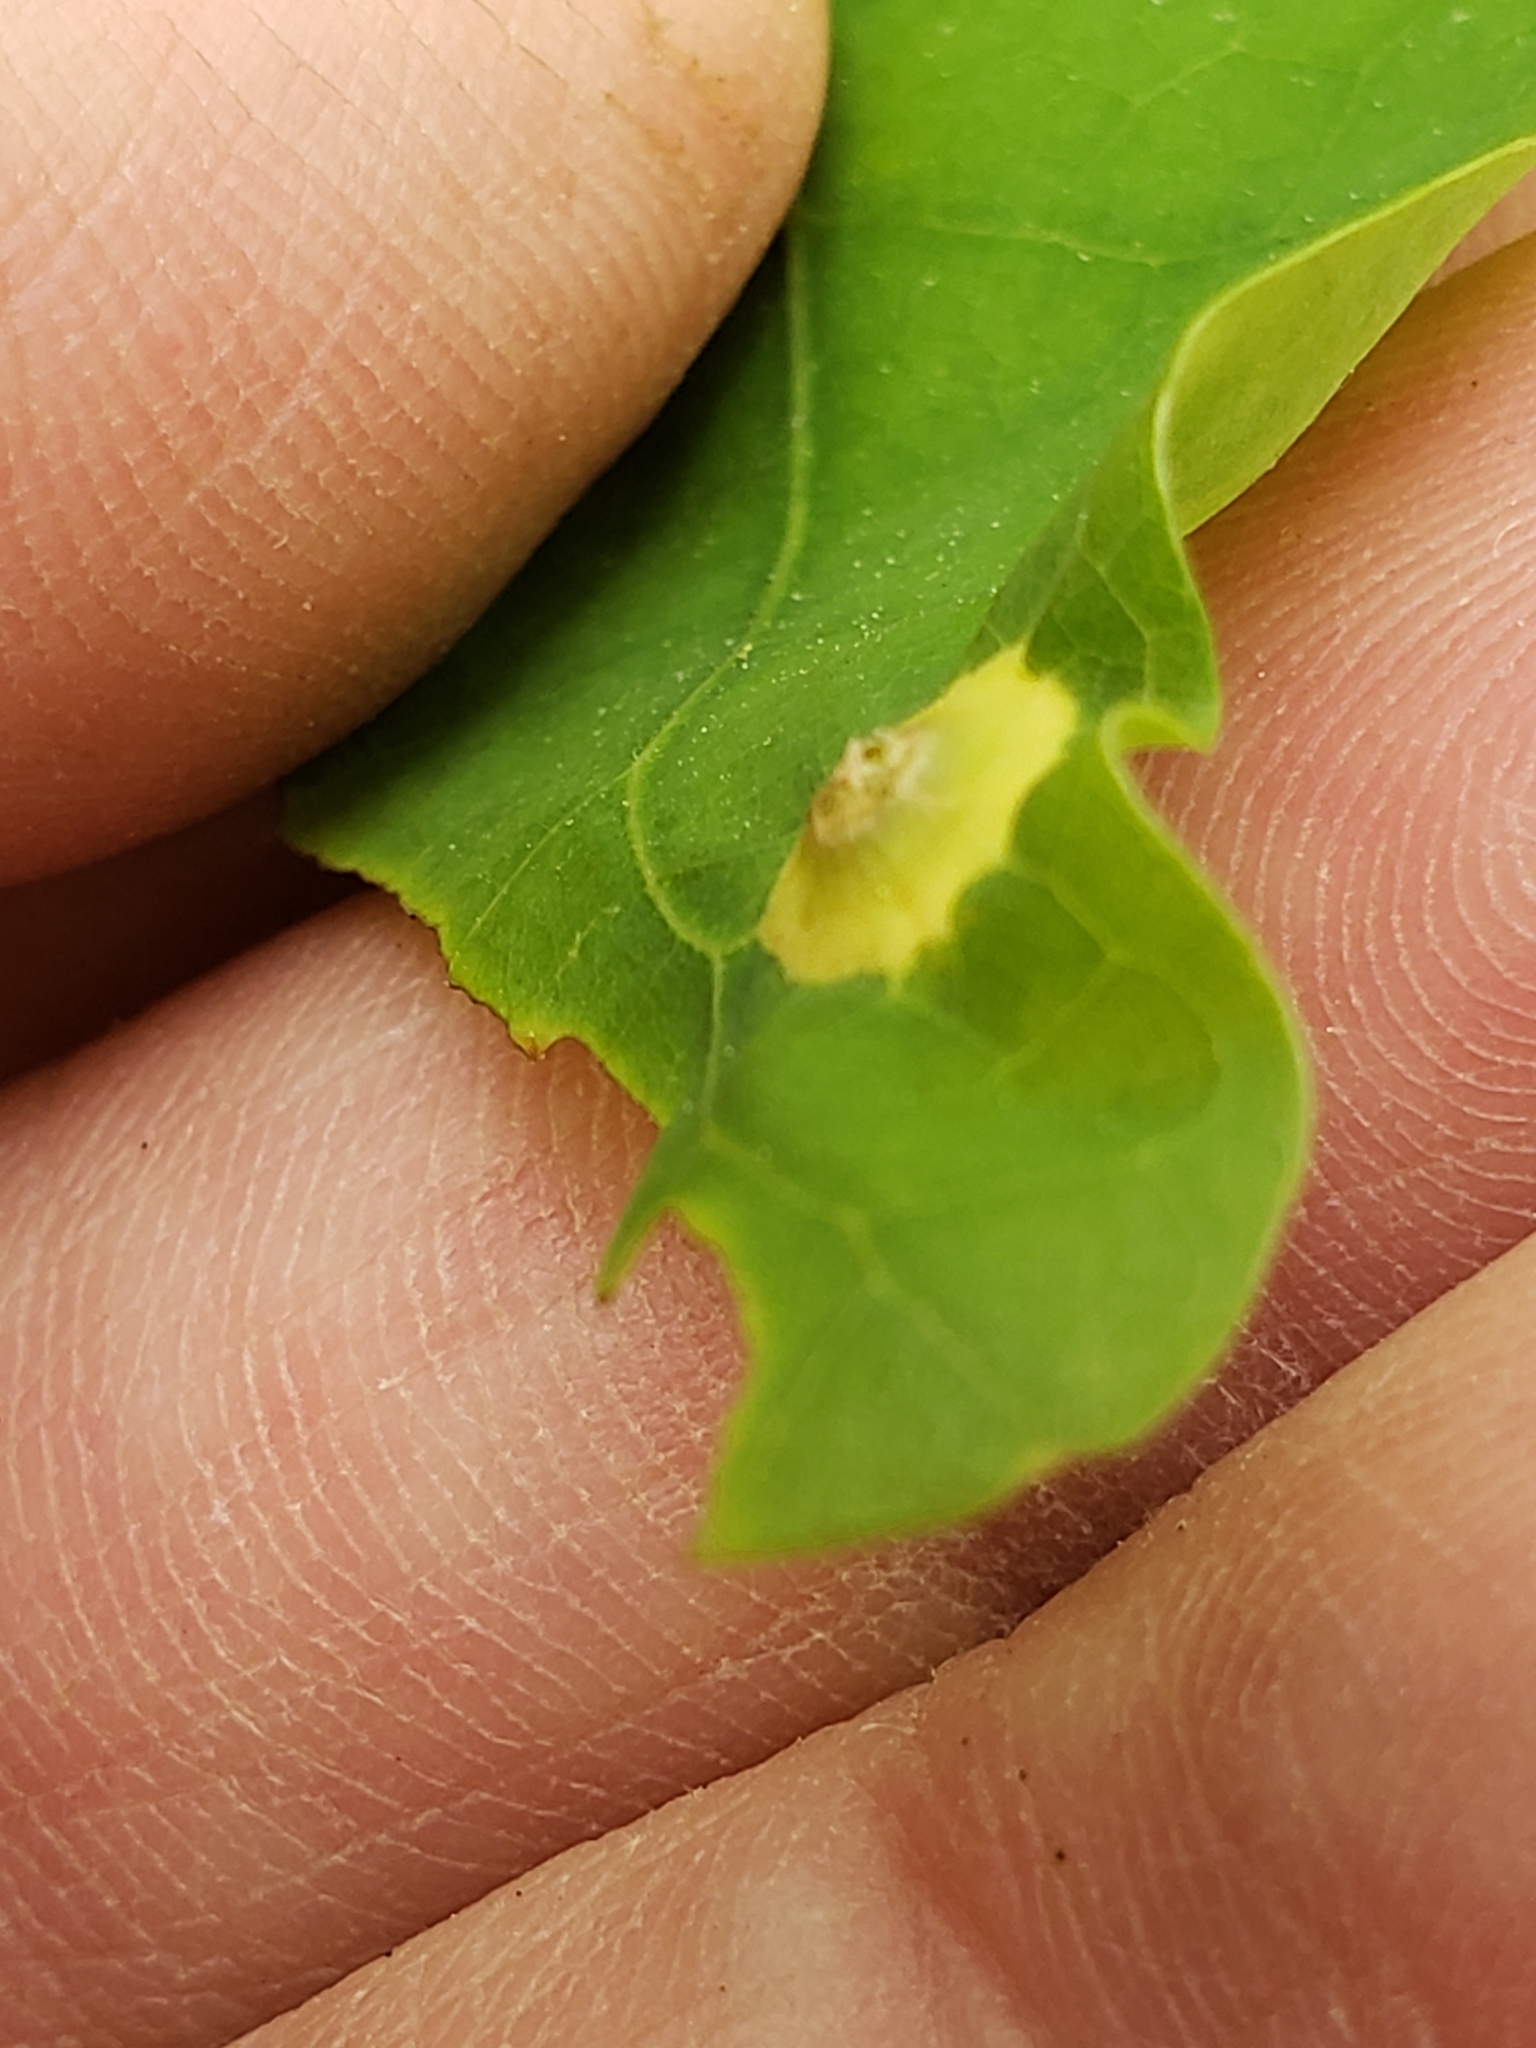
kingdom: Animalia
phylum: Arthropoda
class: Insecta
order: Hymenoptera
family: Cynipidae
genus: Callirhytis
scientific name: Callirhytis
